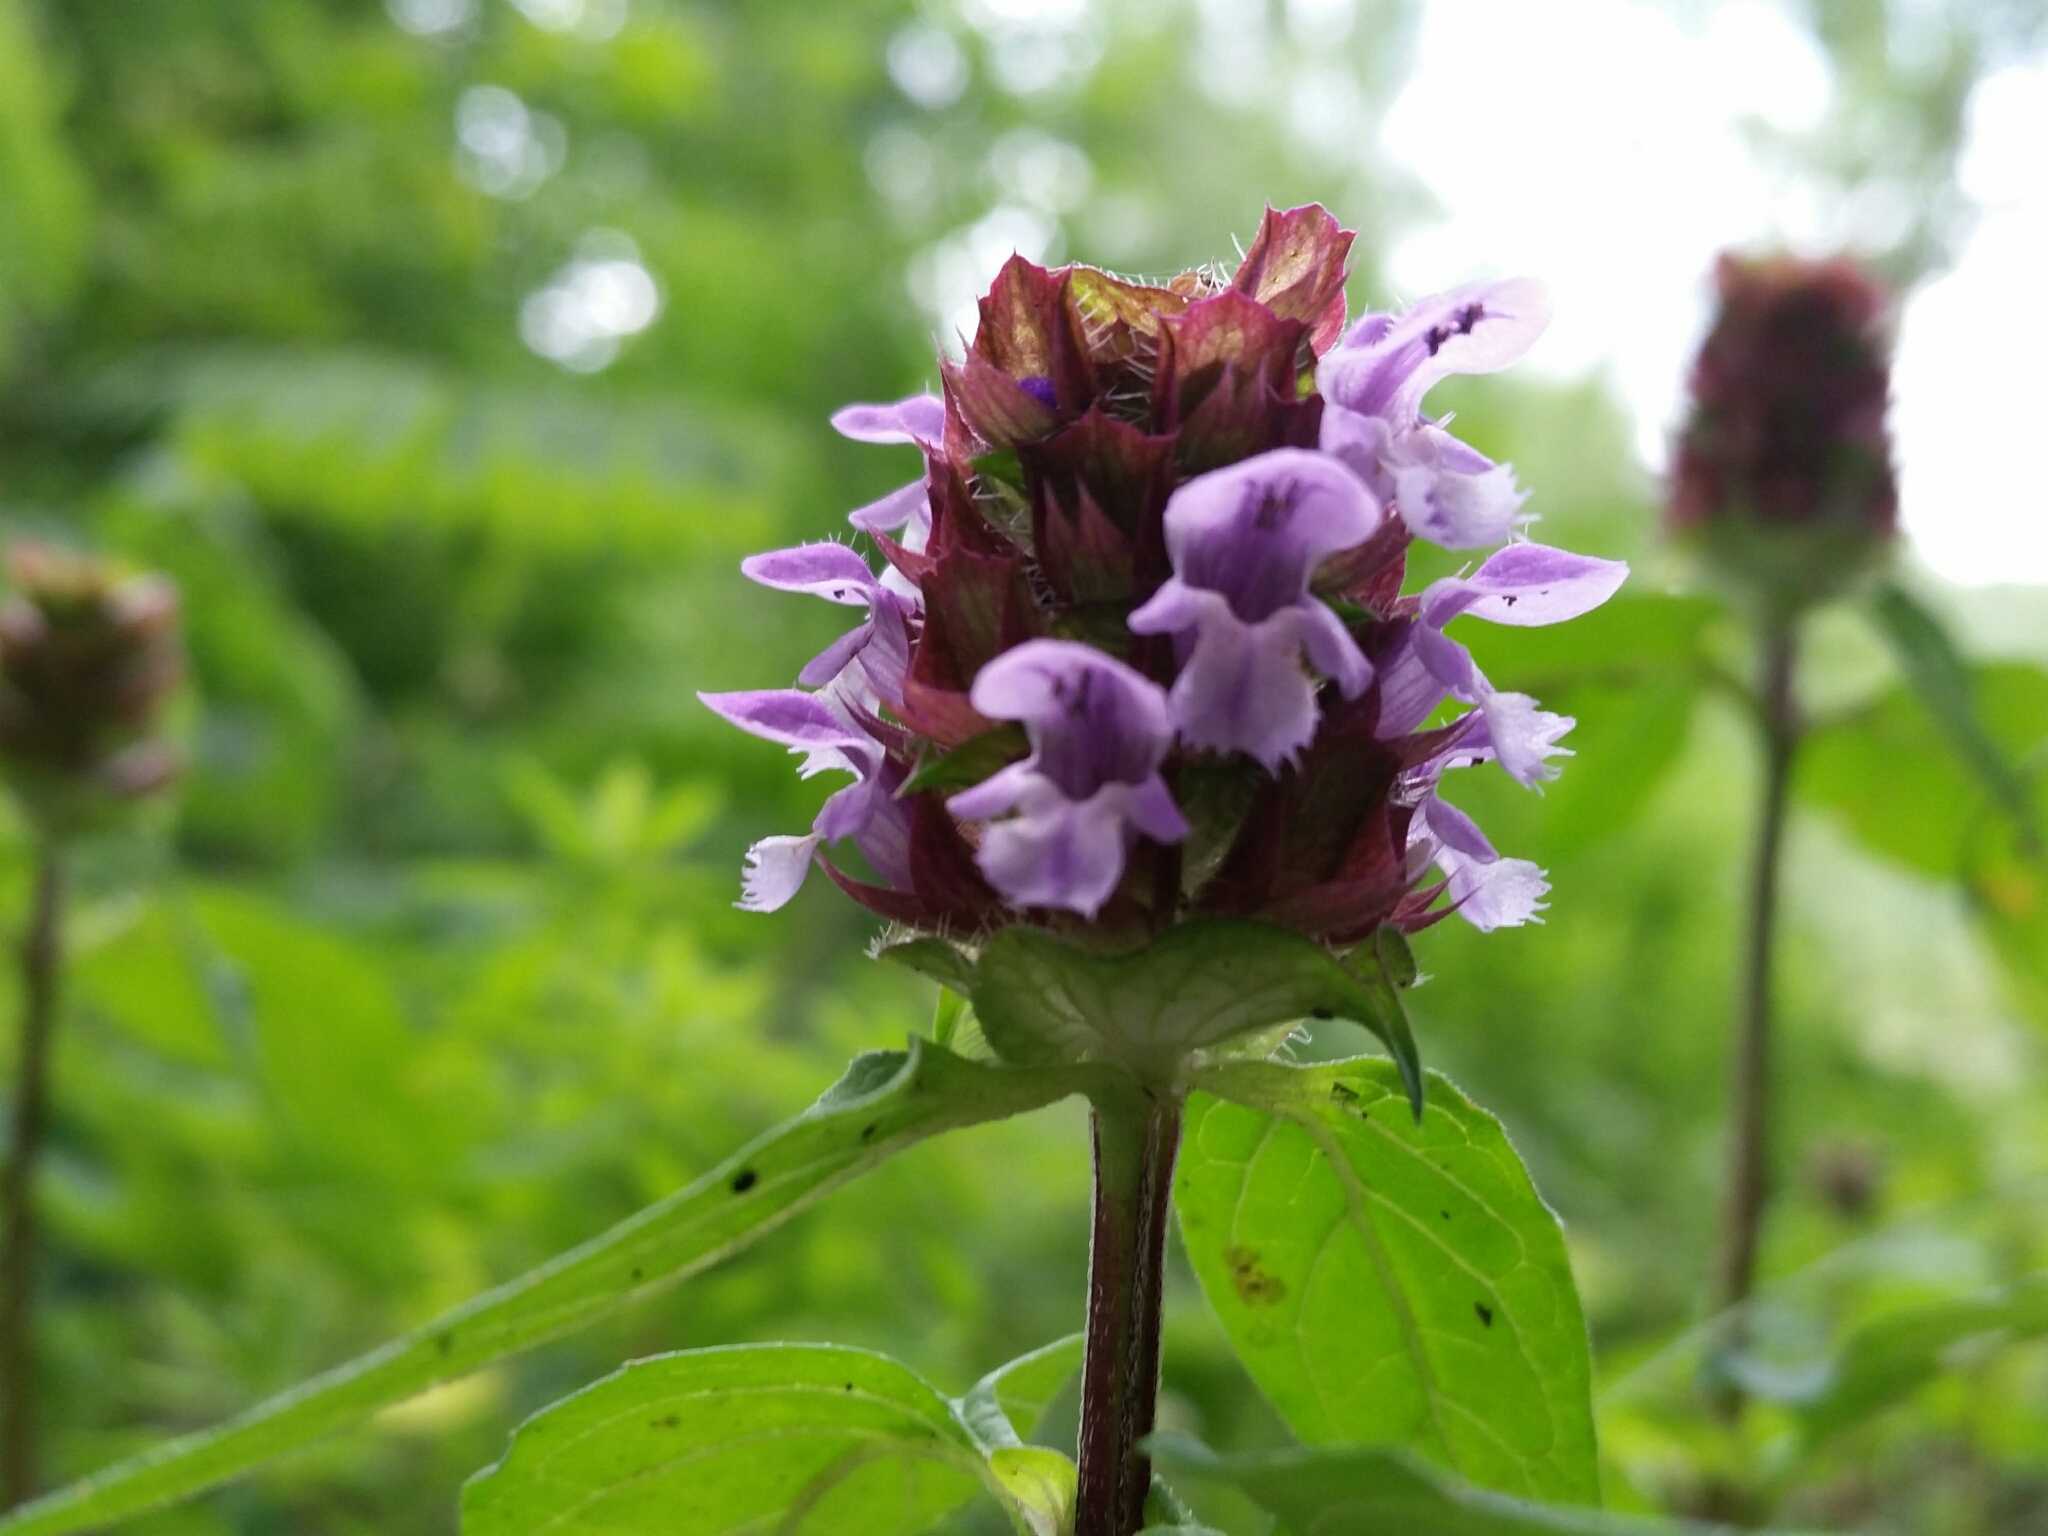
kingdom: Plantae
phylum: Tracheophyta
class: Magnoliopsida
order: Lamiales
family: Lamiaceae
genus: Prunella
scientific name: Prunella vulgaris
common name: Heal-all
